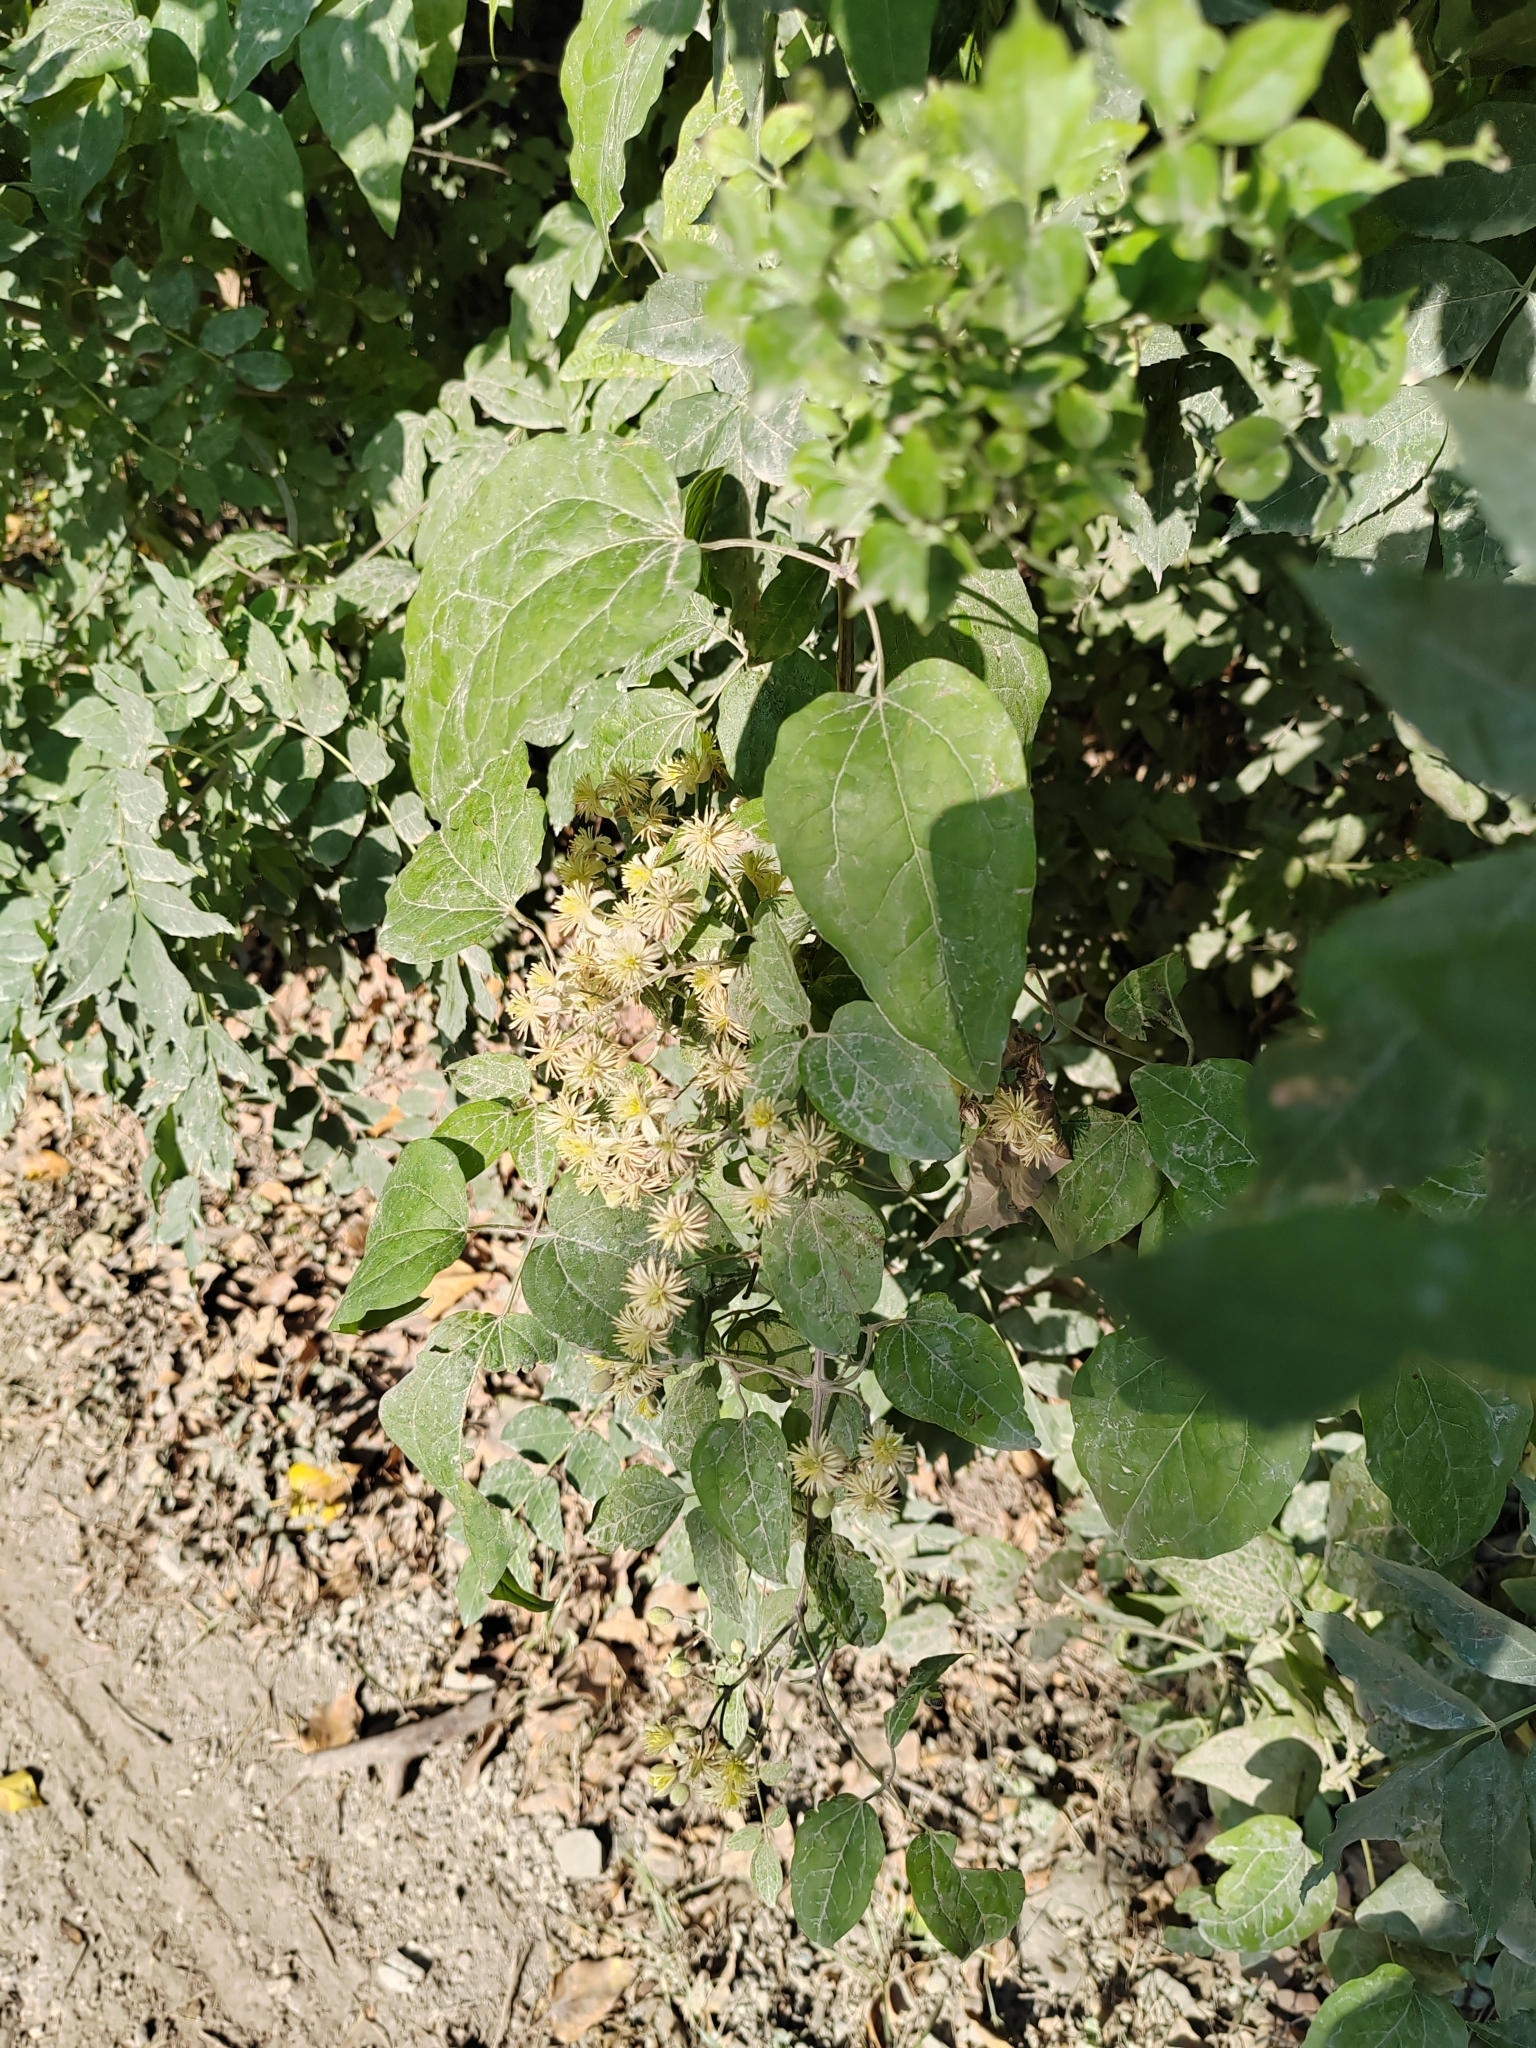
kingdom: Plantae
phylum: Tracheophyta
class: Magnoliopsida
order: Ranunculales
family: Ranunculaceae
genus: Clematis
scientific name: Clematis vitalba
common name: Evergreen clematis
